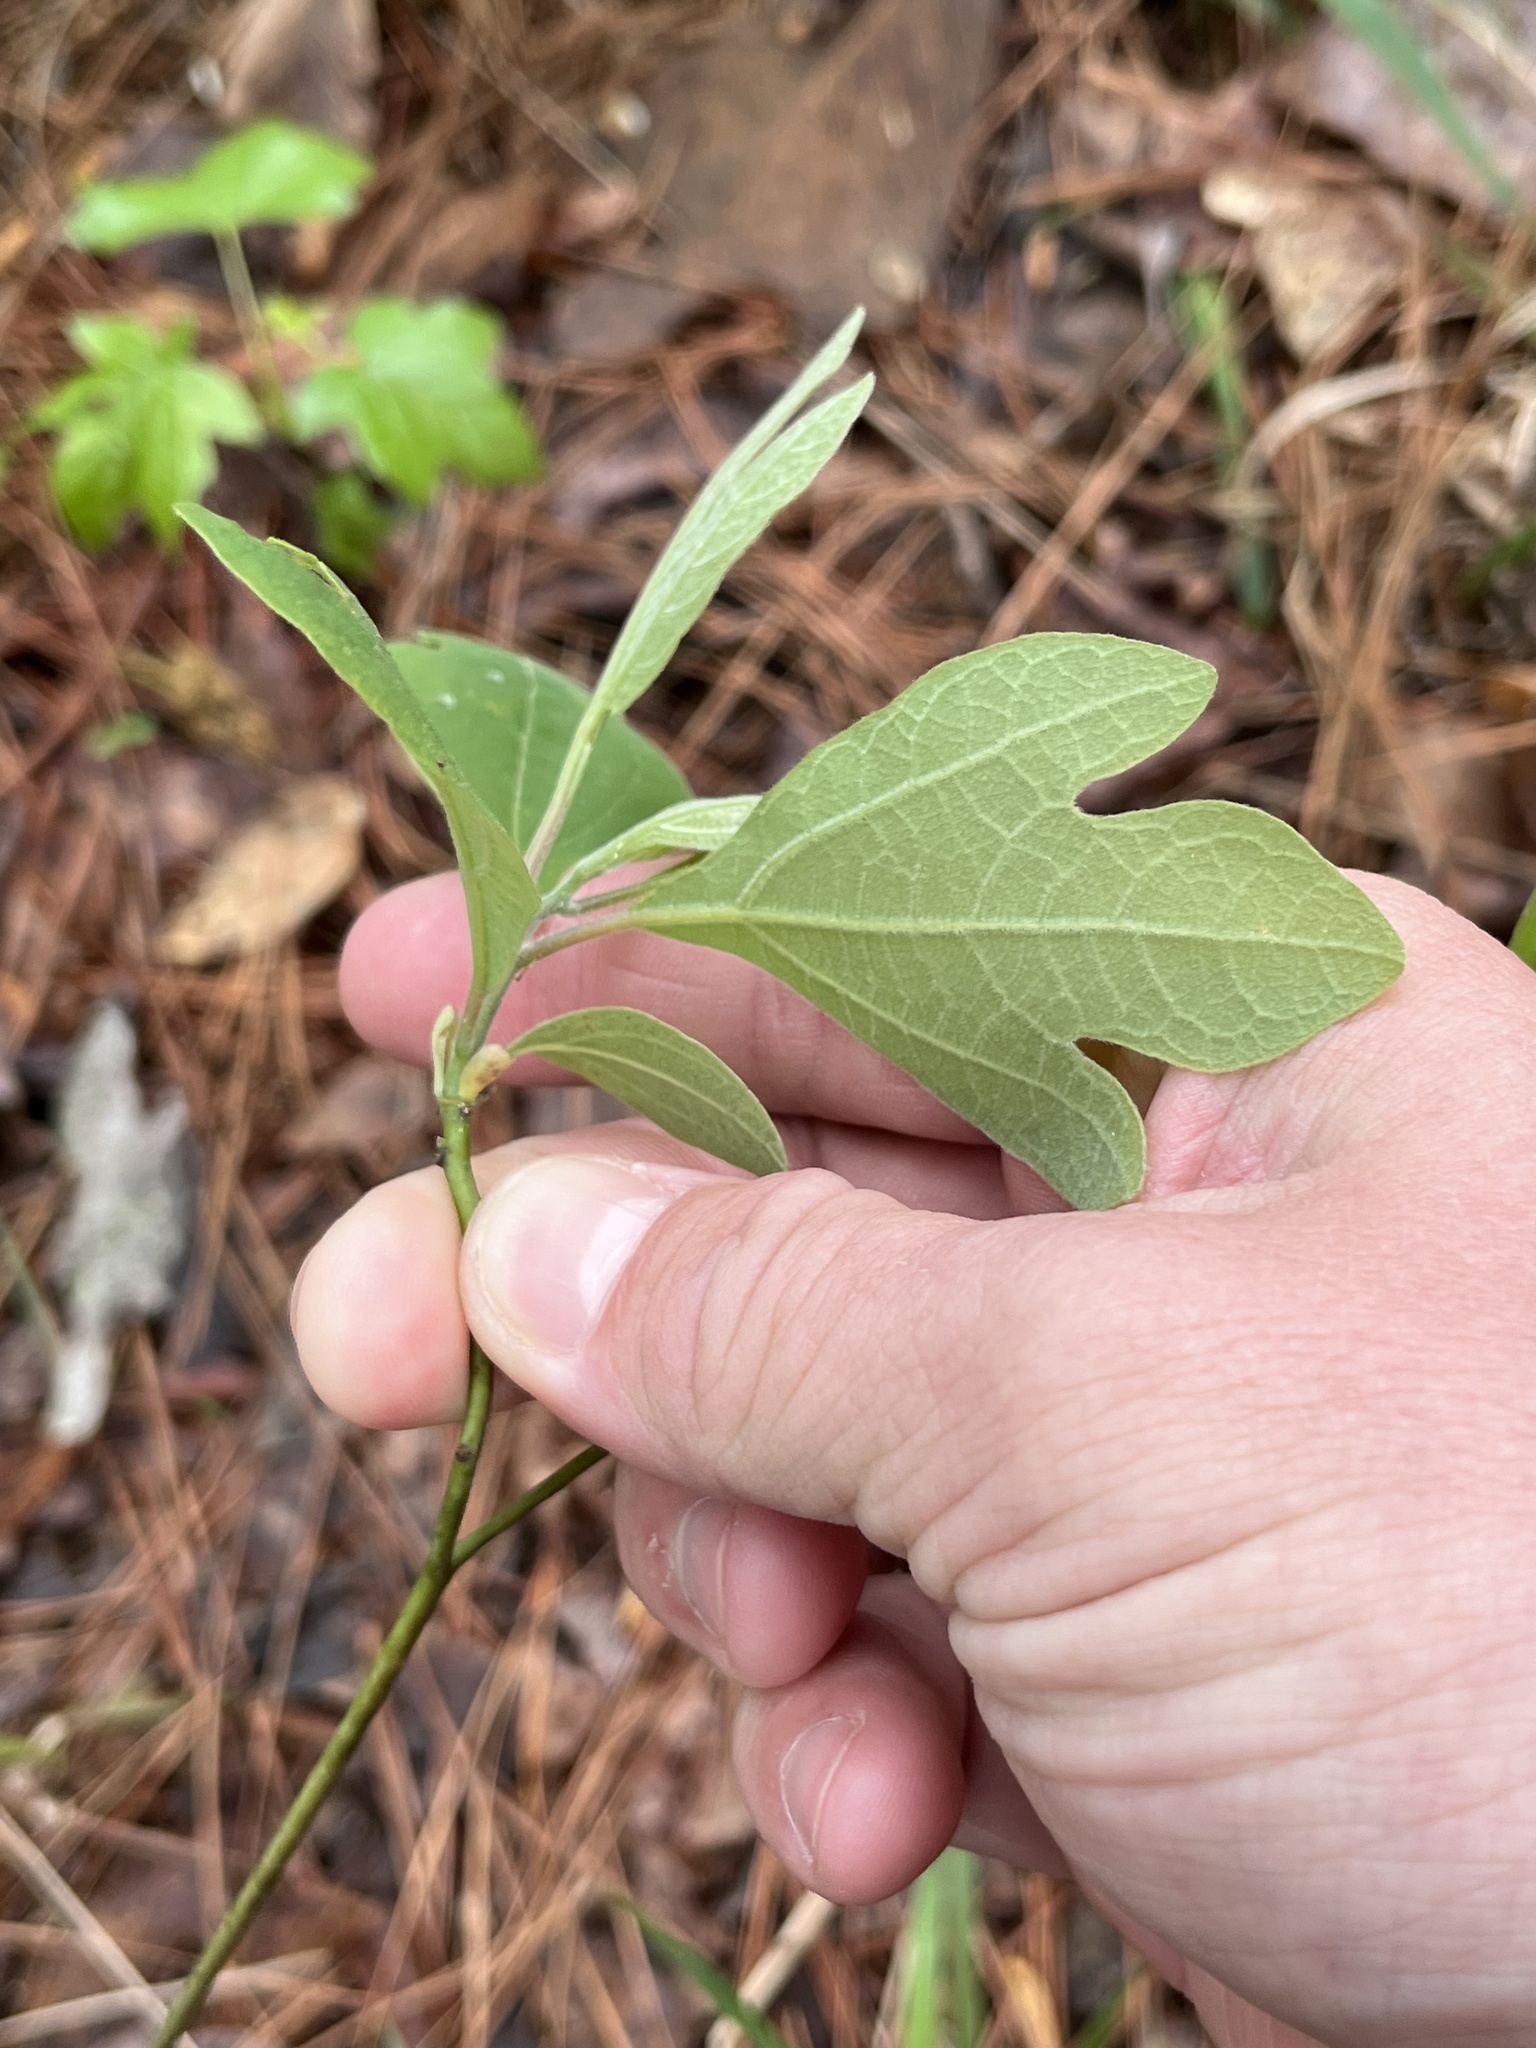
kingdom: Plantae
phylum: Tracheophyta
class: Magnoliopsida
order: Laurales
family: Lauraceae
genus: Sassafras
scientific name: Sassafras albidum
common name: Sassafras
